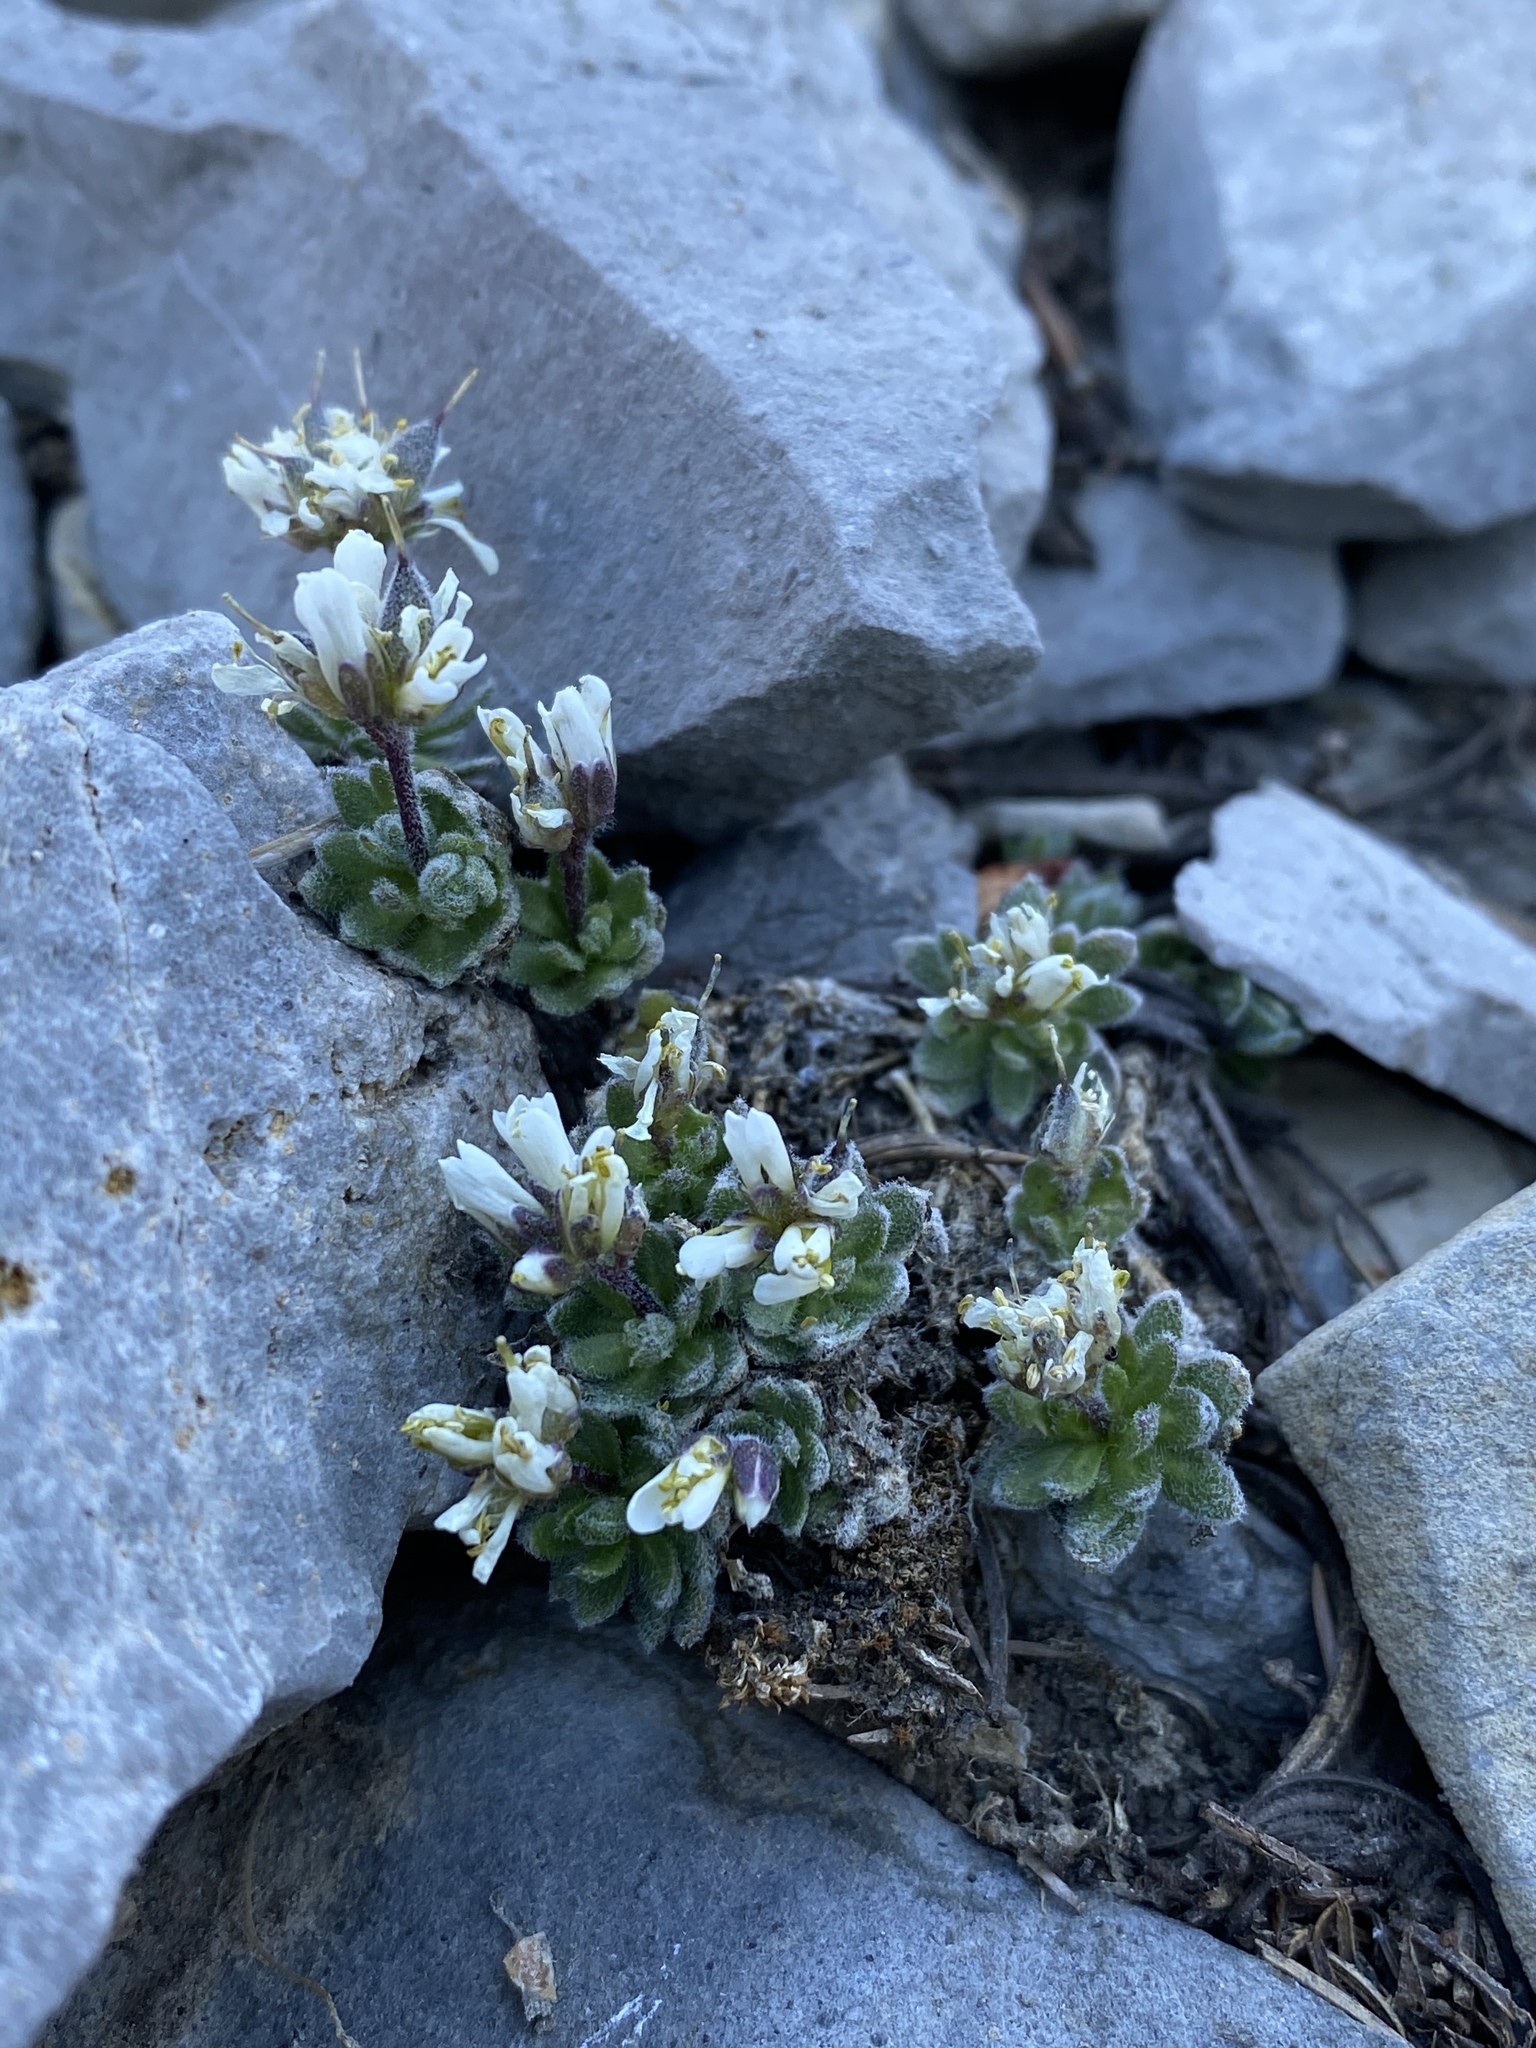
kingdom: Plantae
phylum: Tracheophyta
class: Magnoliopsida
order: Brassicales
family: Brassicaceae
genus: Draba
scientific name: Draba jaegeri
